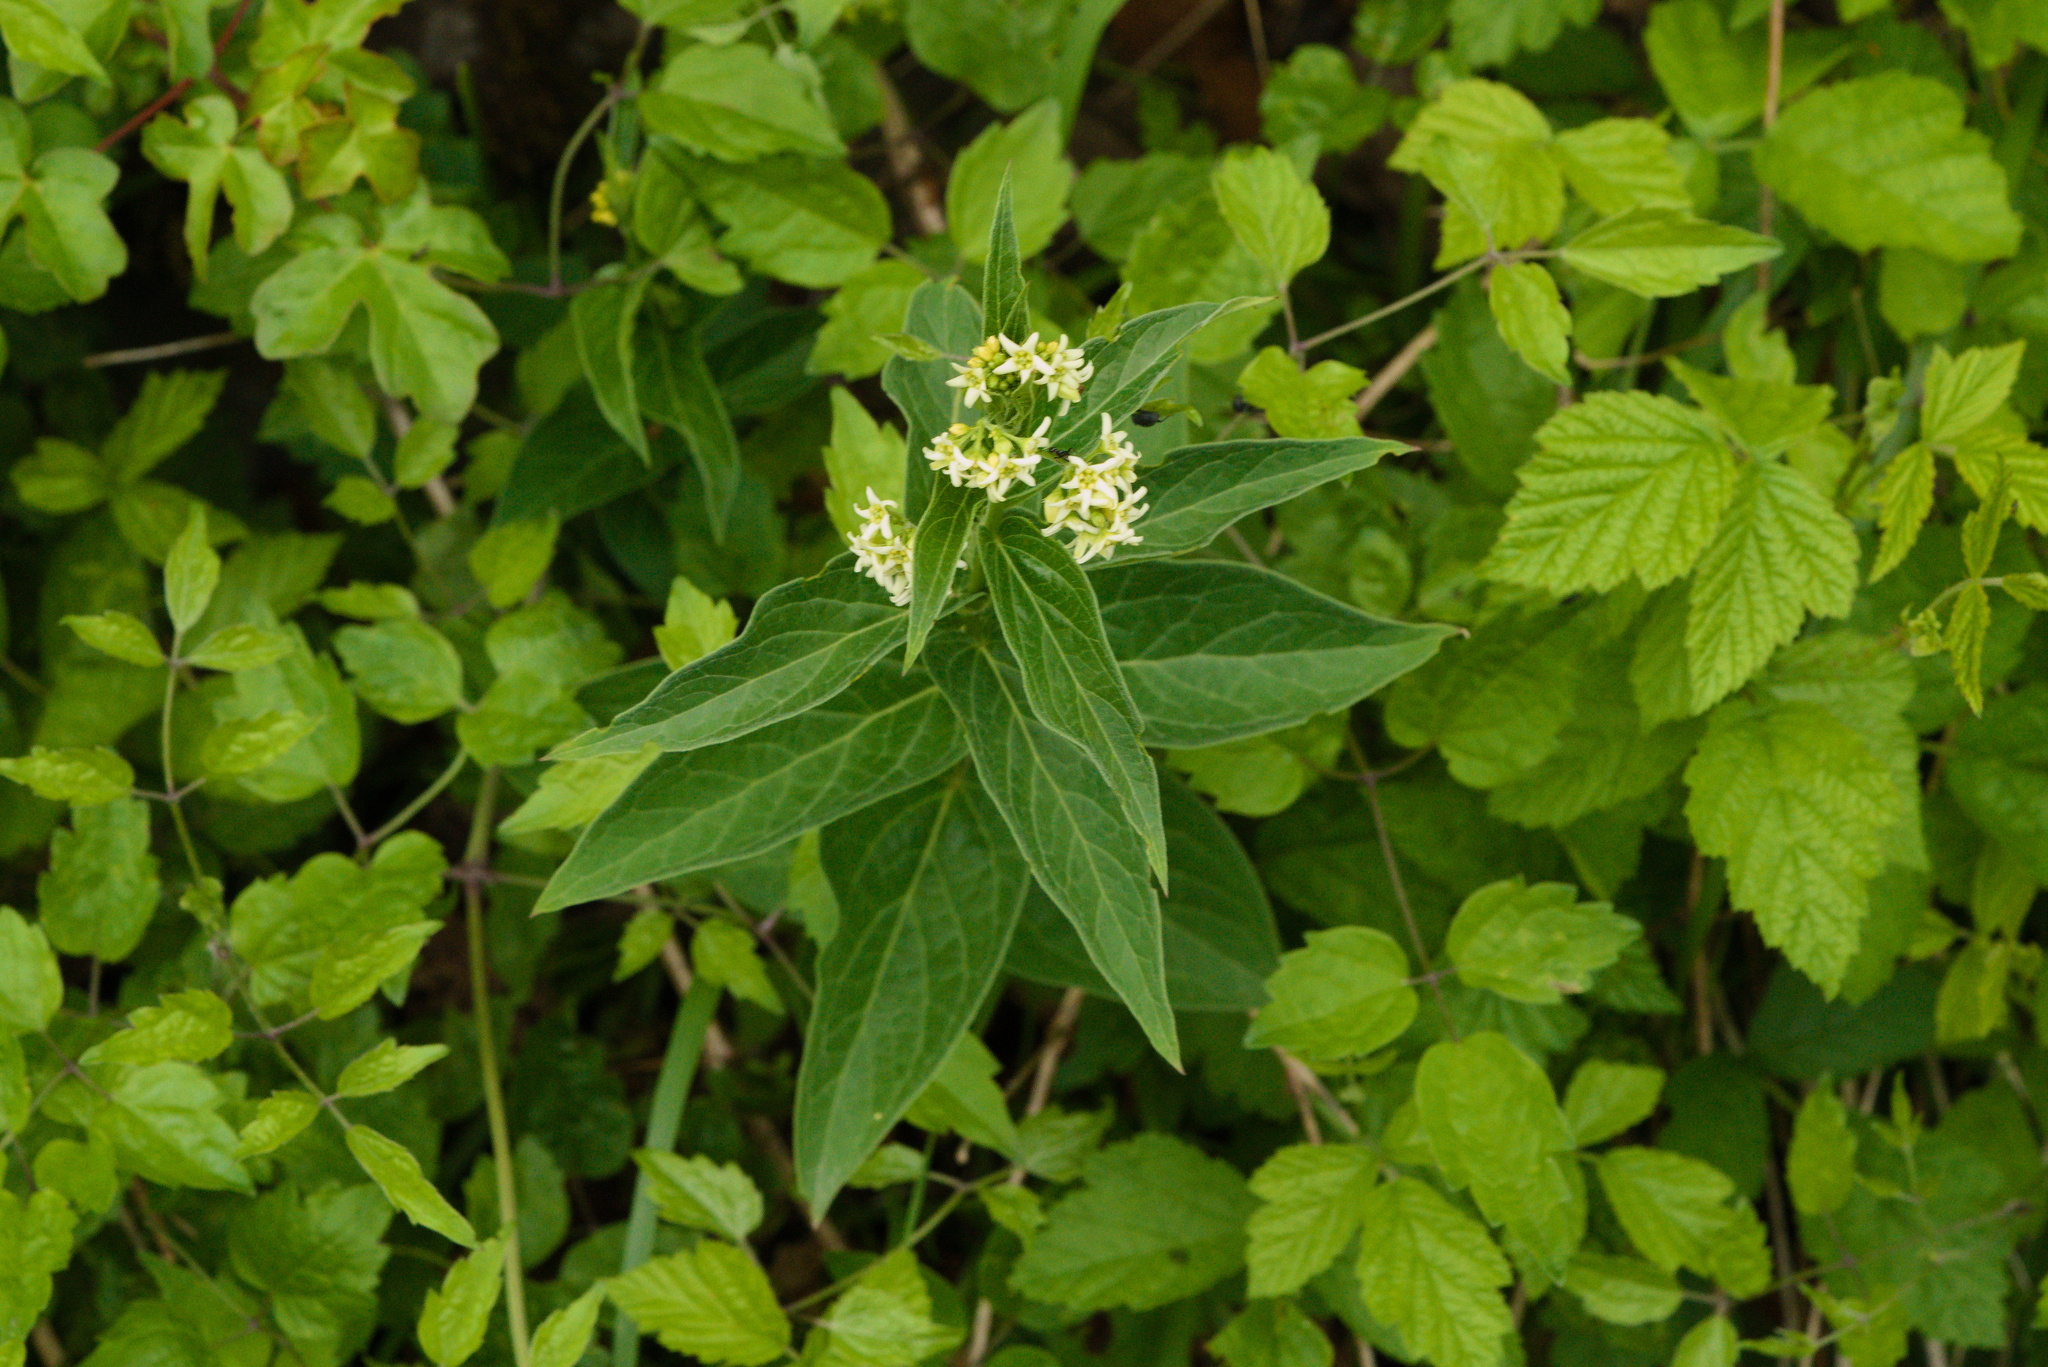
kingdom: Plantae
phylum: Tracheophyta
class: Magnoliopsida
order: Gentianales
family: Apocynaceae
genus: Vincetoxicum
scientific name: Vincetoxicum hirundinaria
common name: White swallowwort
